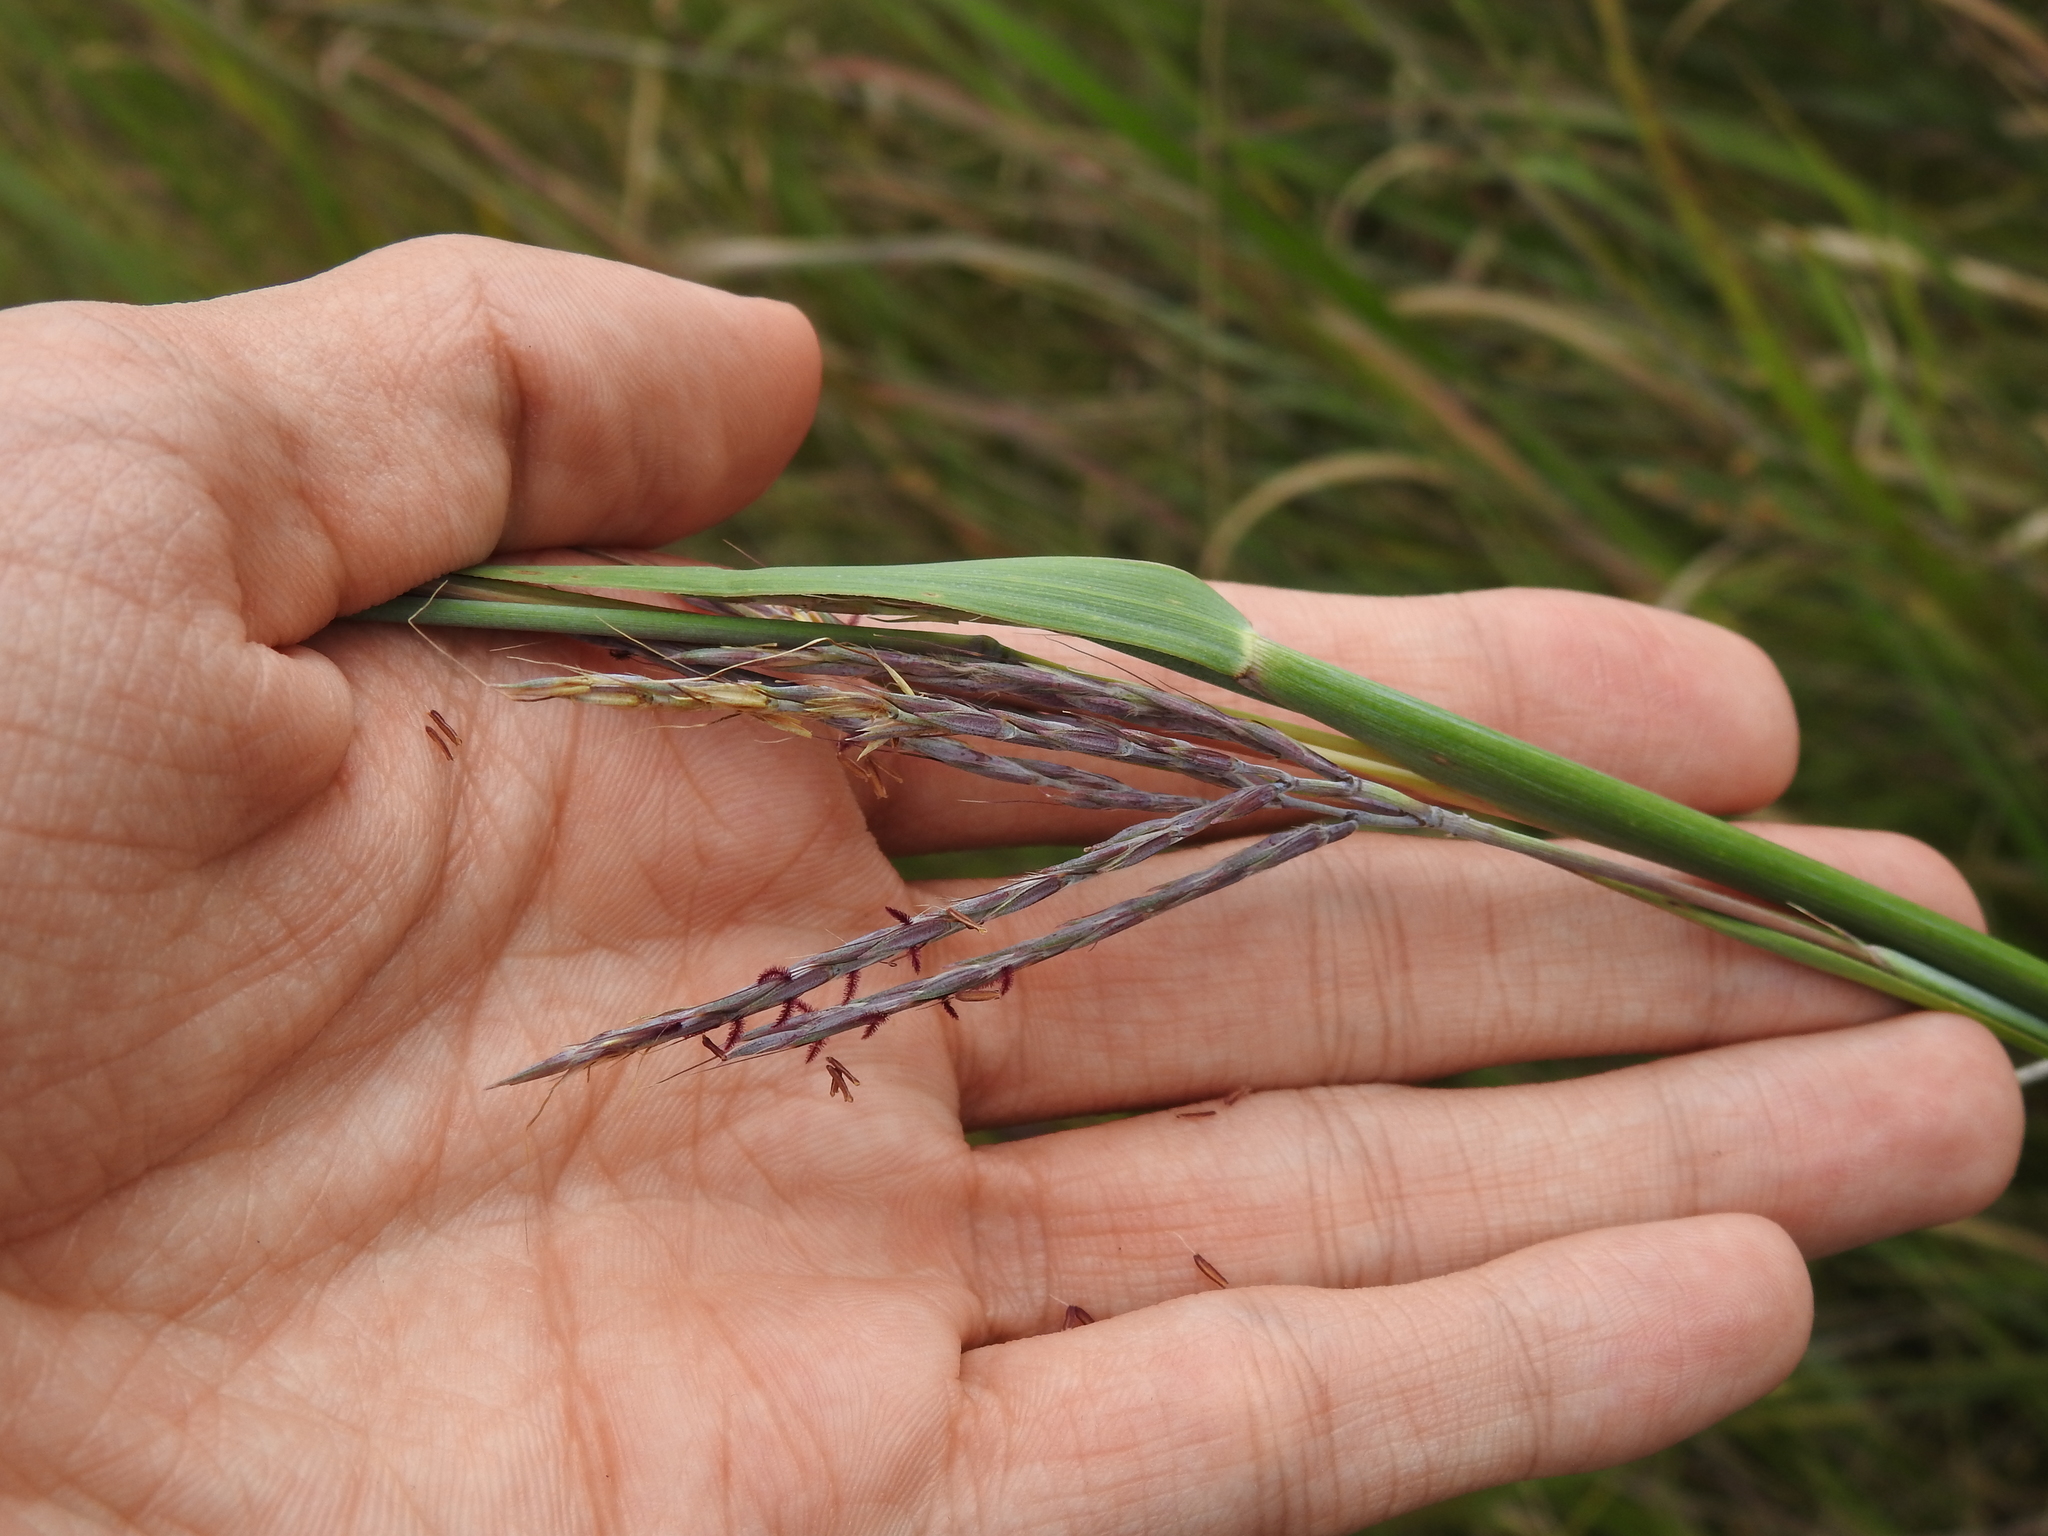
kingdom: Plantae
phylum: Tracheophyta
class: Liliopsida
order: Poales
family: Poaceae
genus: Andropogon
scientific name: Andropogon gerardi
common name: Big bluestem
